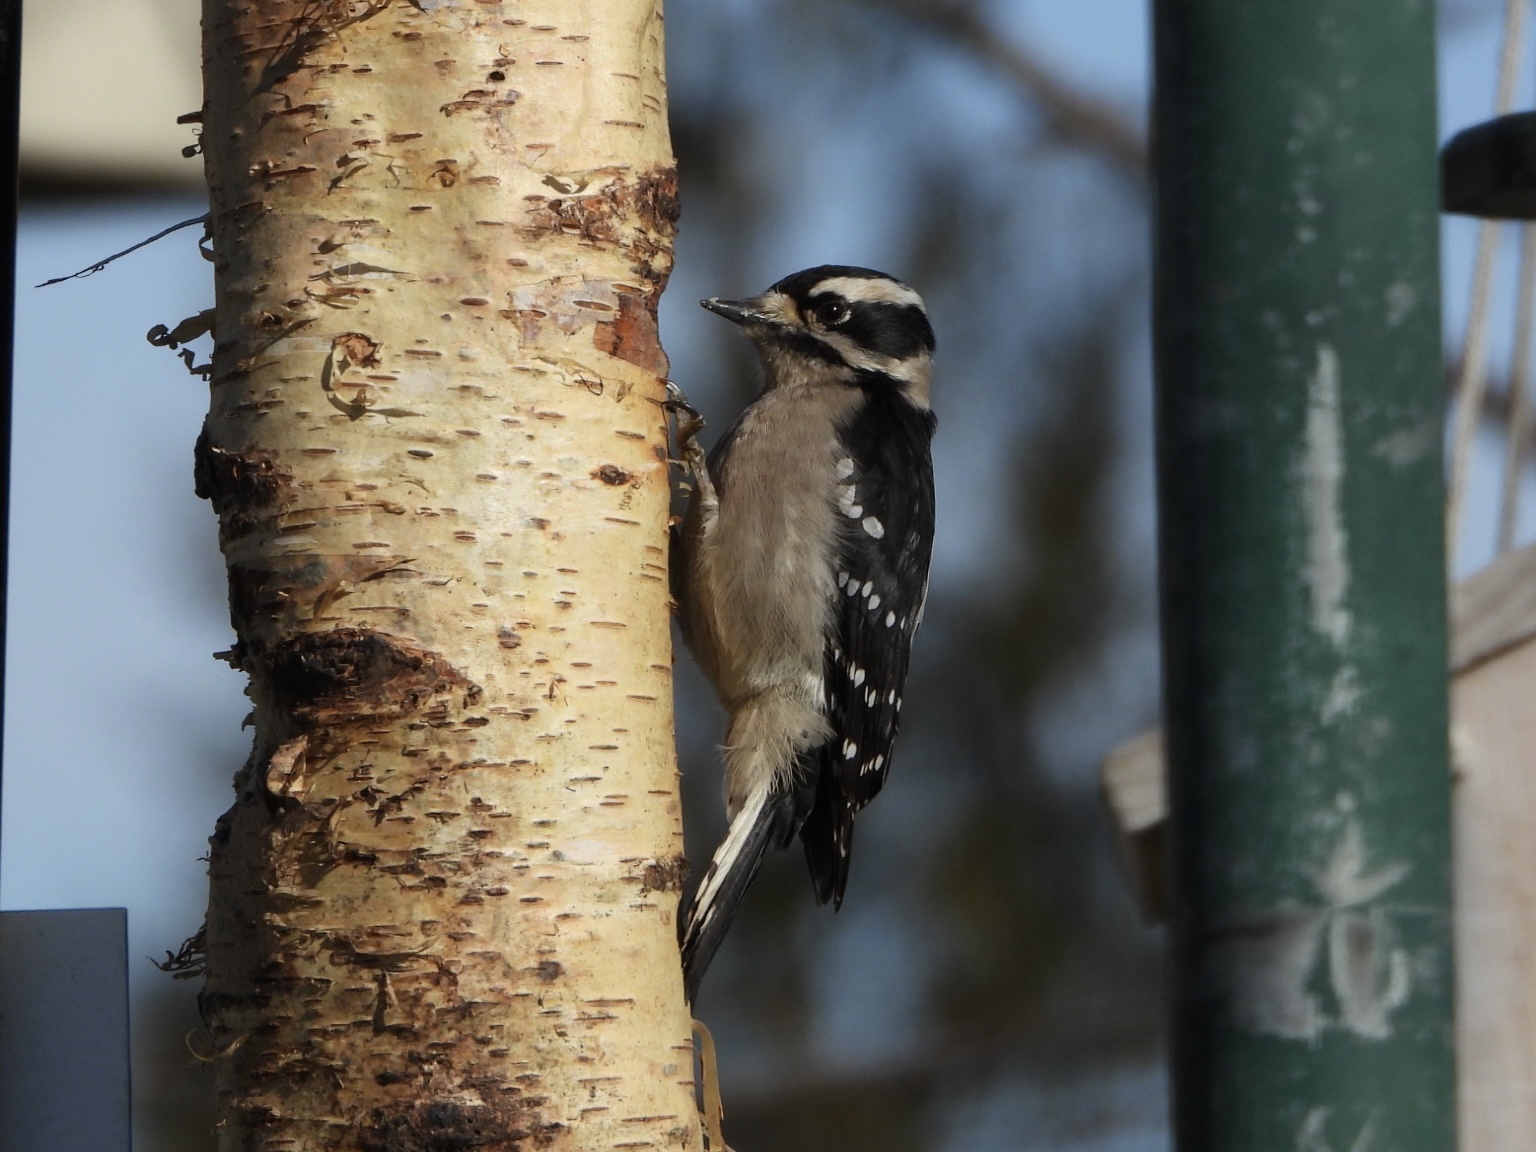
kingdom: Animalia
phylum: Chordata
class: Aves
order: Piciformes
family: Picidae
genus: Dryobates
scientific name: Dryobates pubescens
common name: Downy woodpecker
